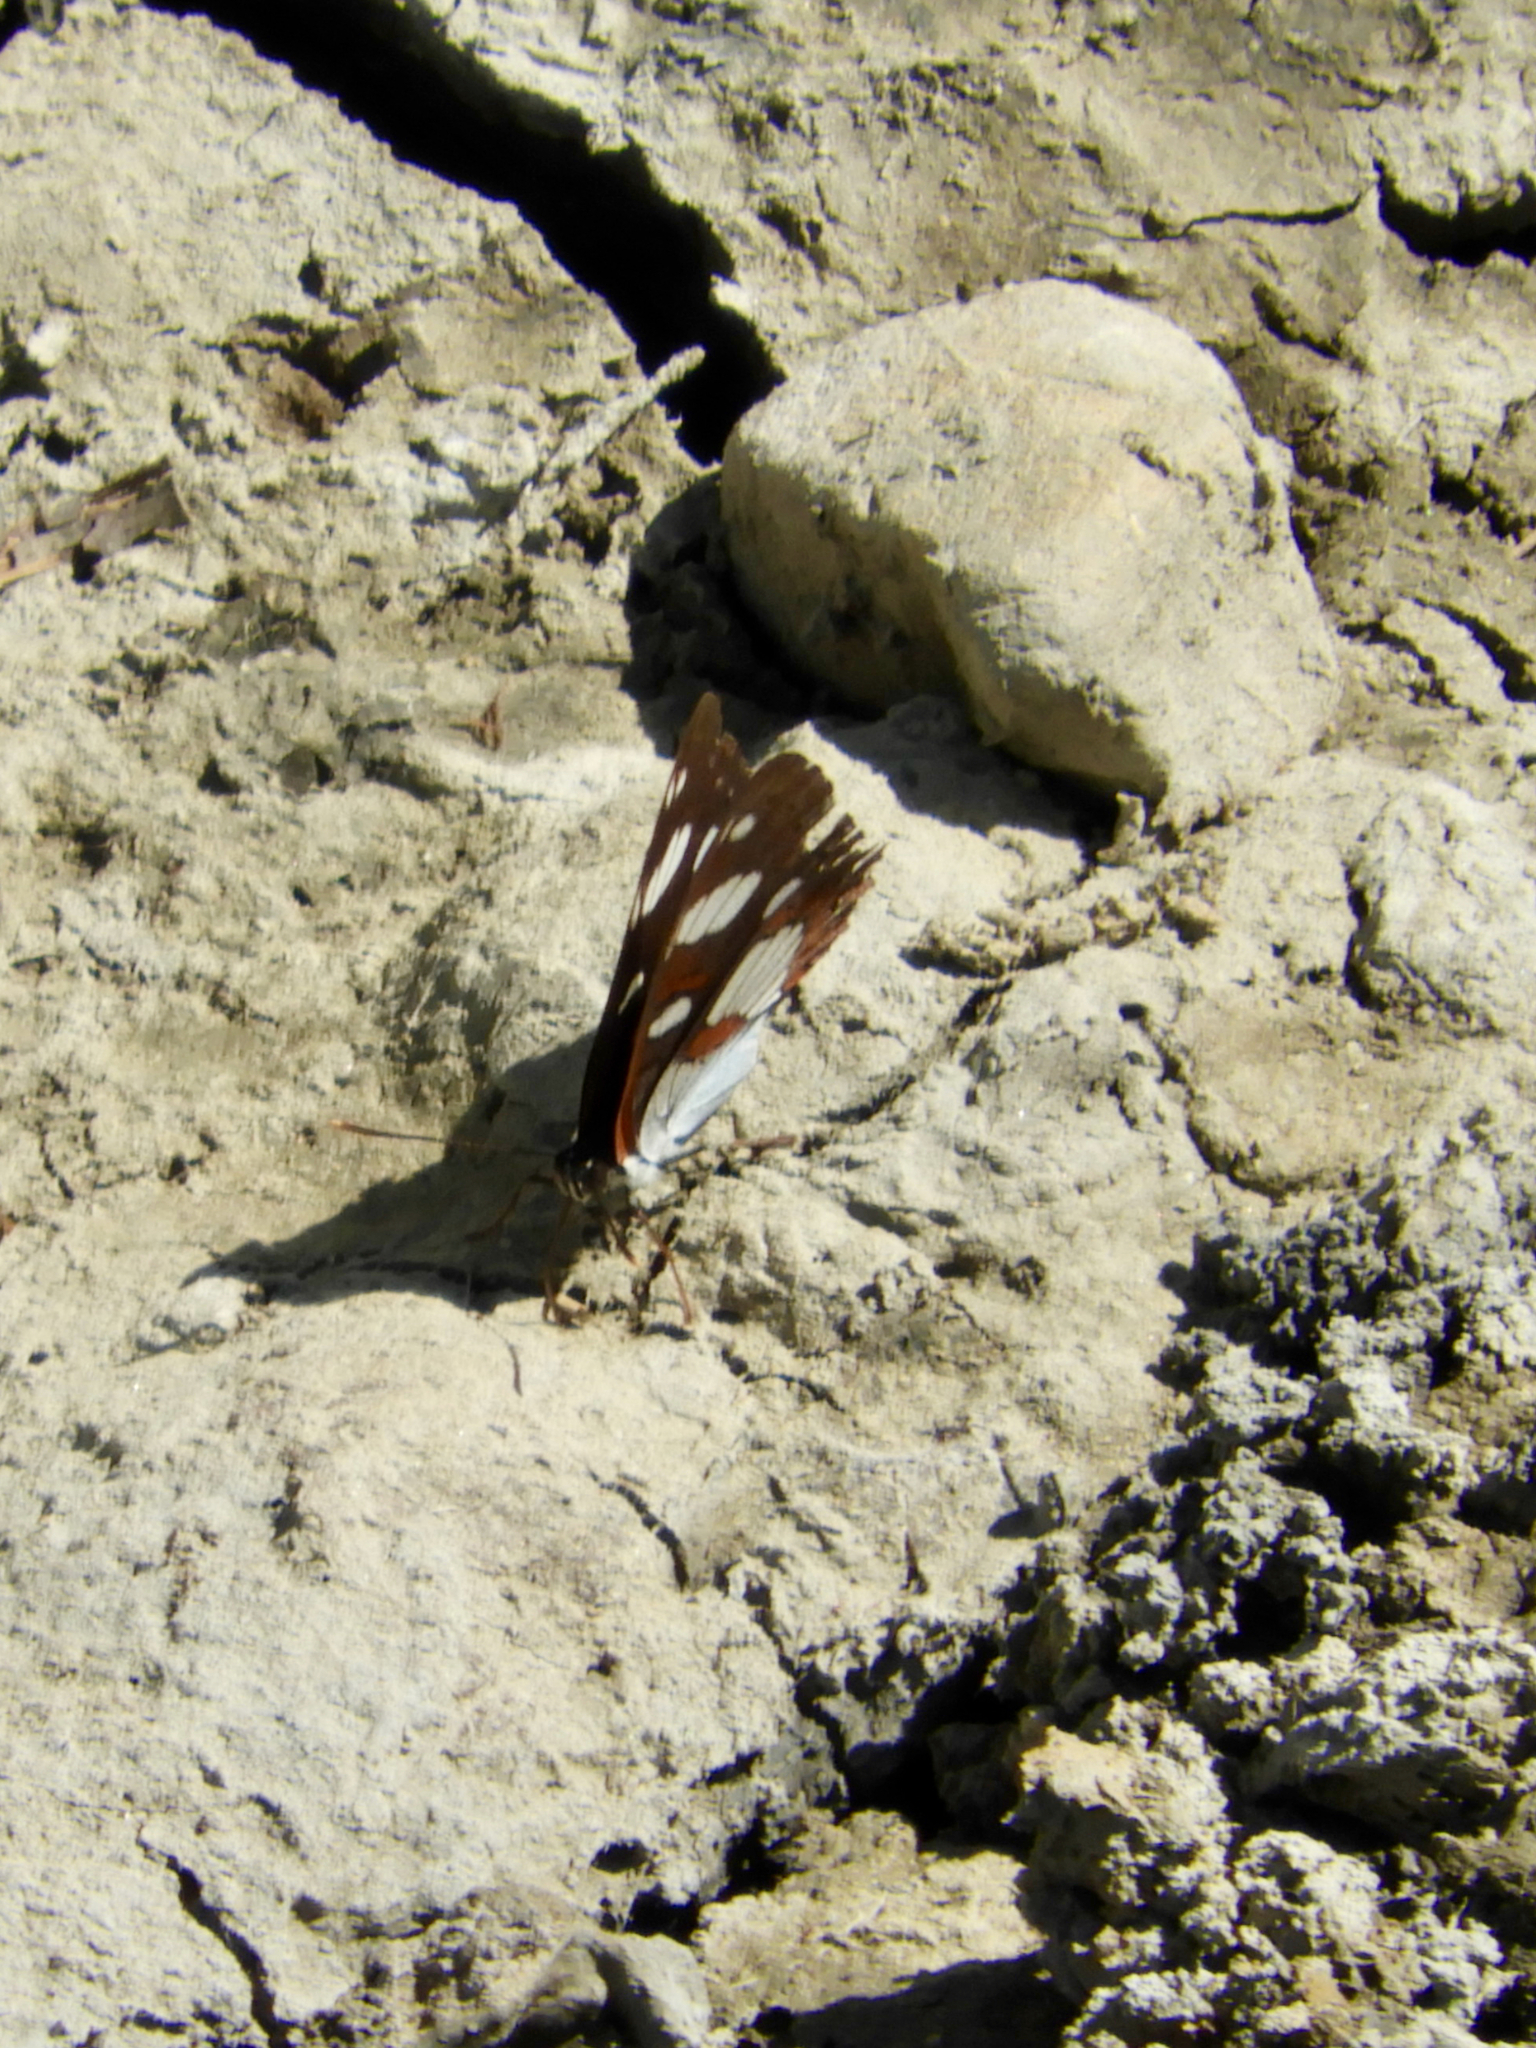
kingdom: Animalia
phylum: Arthropoda
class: Insecta
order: Lepidoptera
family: Nymphalidae
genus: Limenitis
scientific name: Limenitis reducta
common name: Southern white admiral
